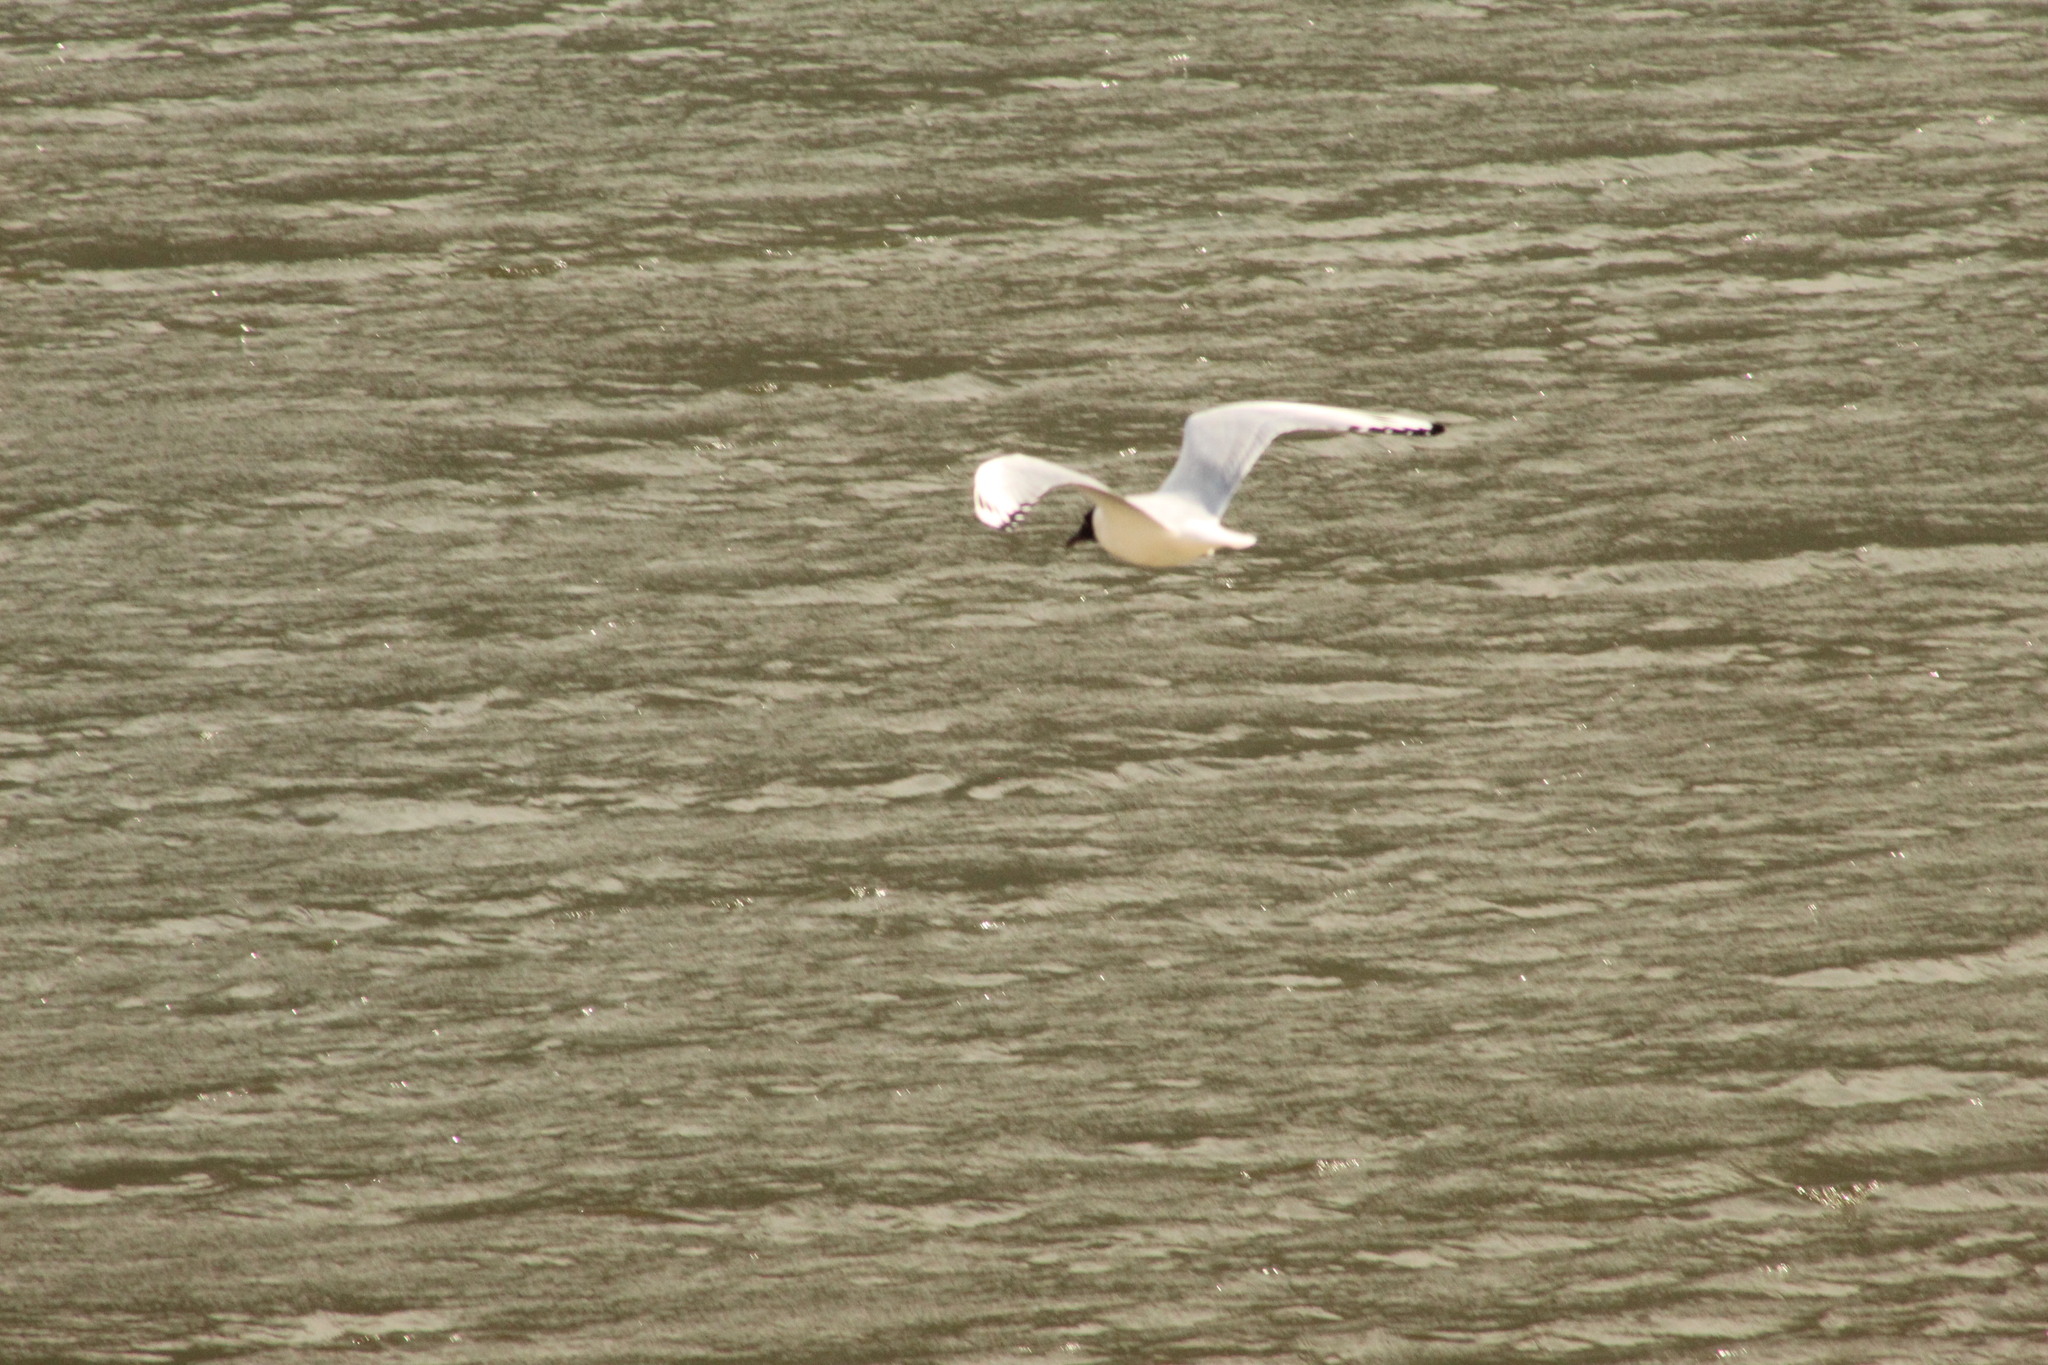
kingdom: Animalia
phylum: Chordata
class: Aves
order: Charadriiformes
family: Laridae
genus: Chroicocephalus
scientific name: Chroicocephalus serranus
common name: Andean gull
